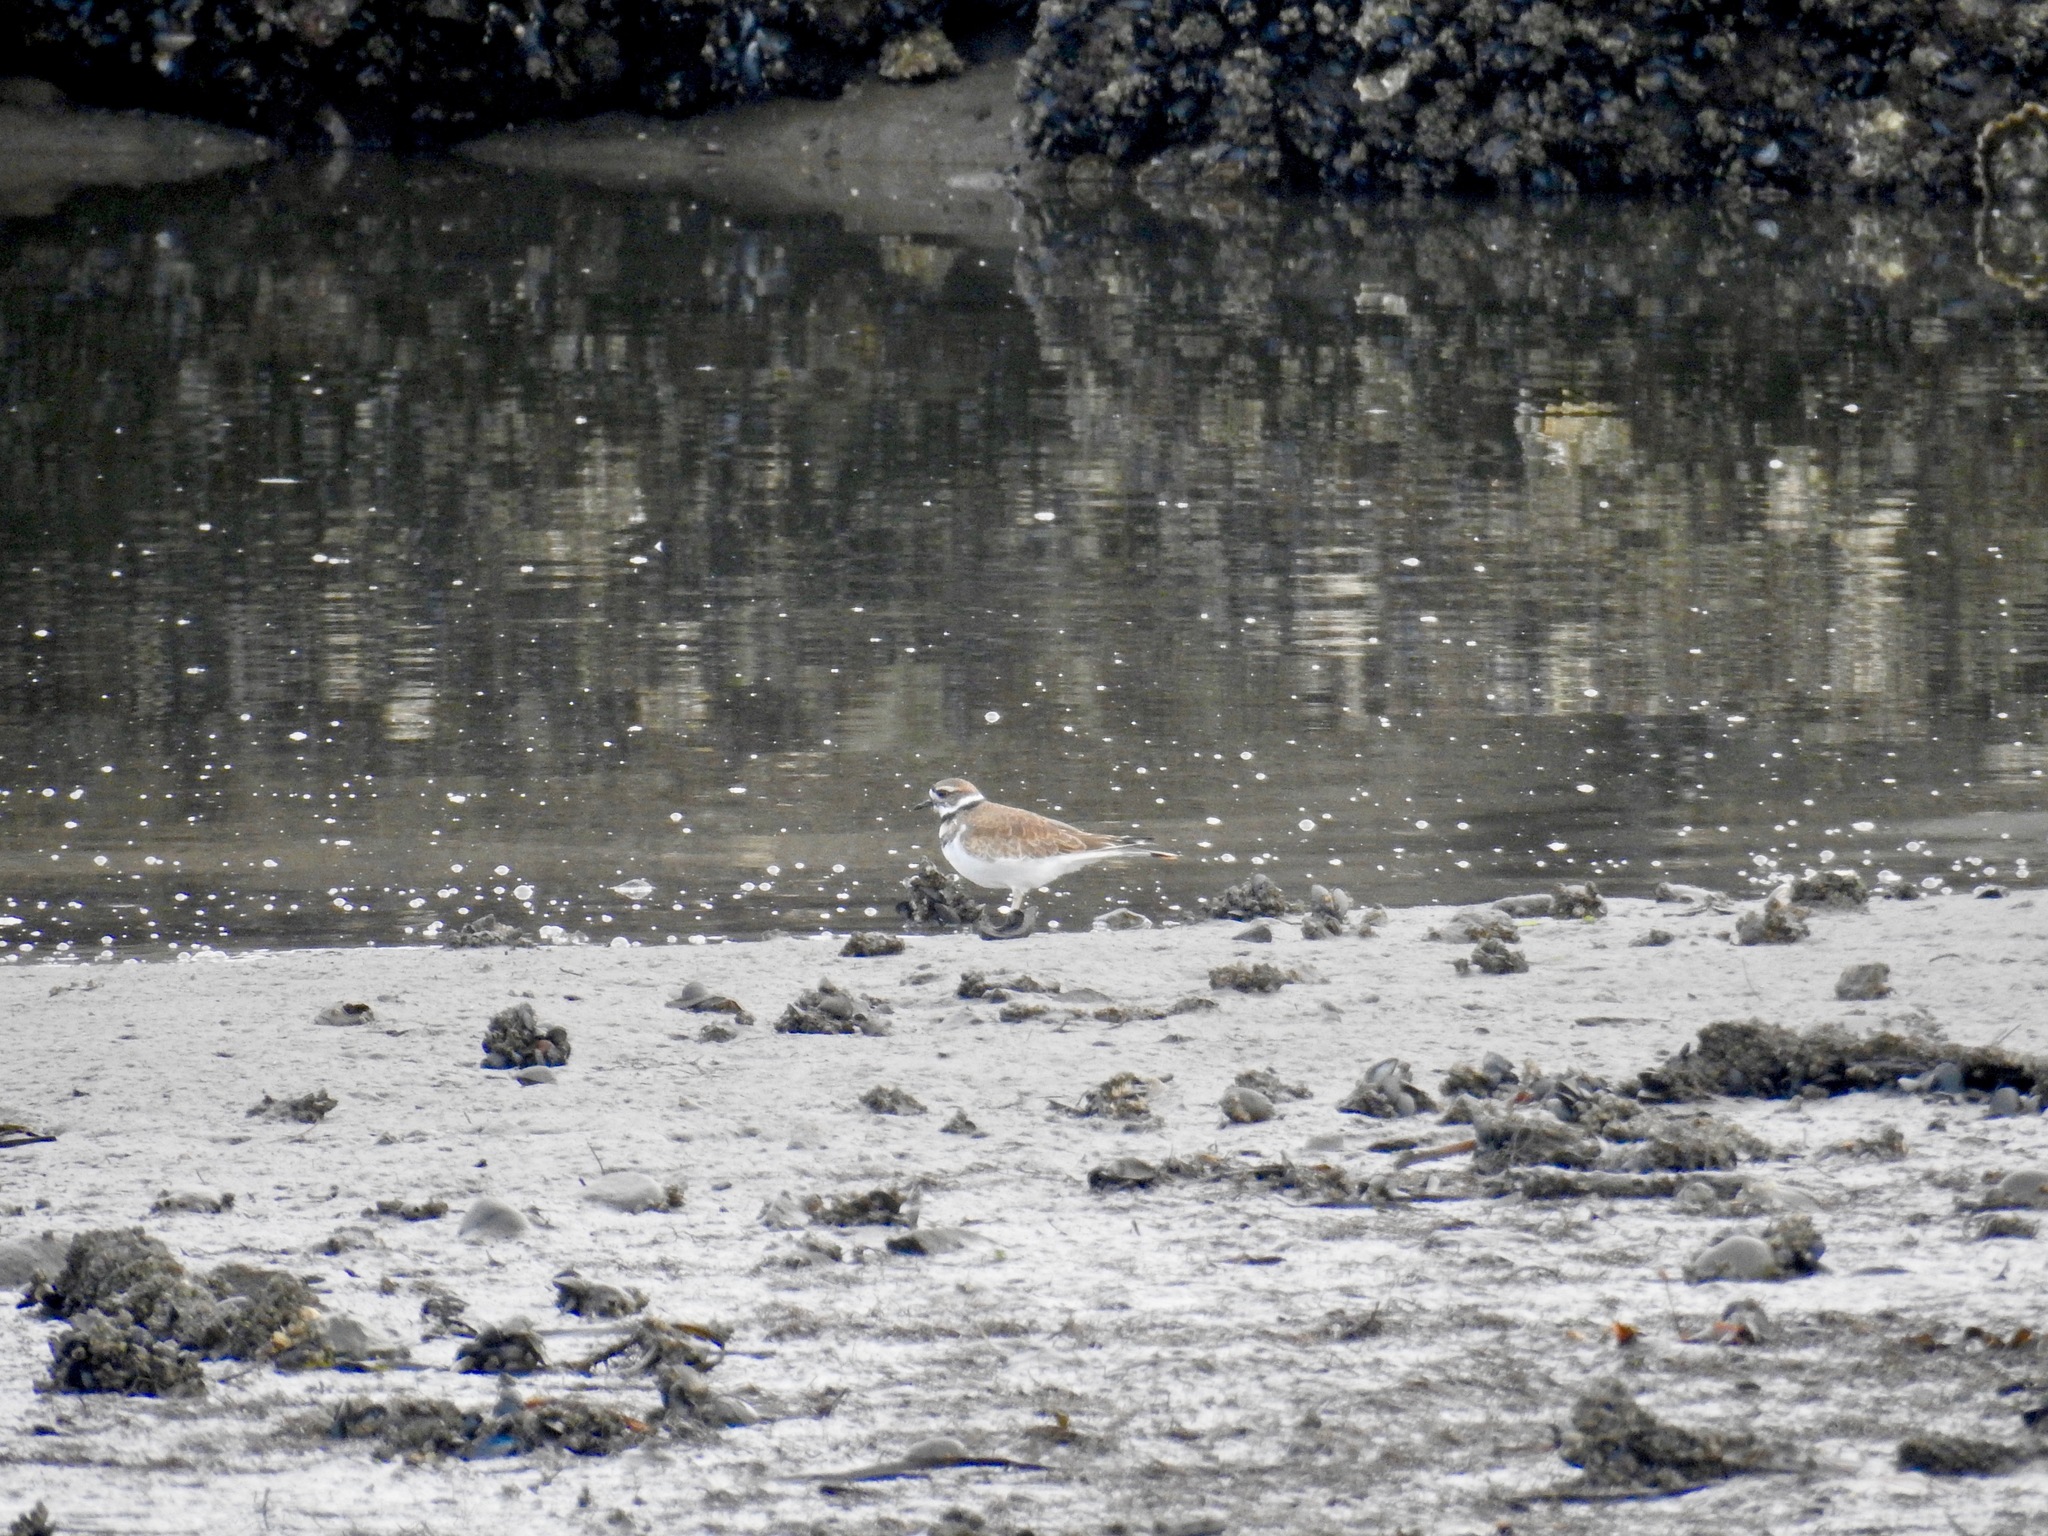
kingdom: Animalia
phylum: Chordata
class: Aves
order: Charadriiformes
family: Charadriidae
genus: Charadrius
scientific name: Charadrius vociferus
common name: Killdeer
